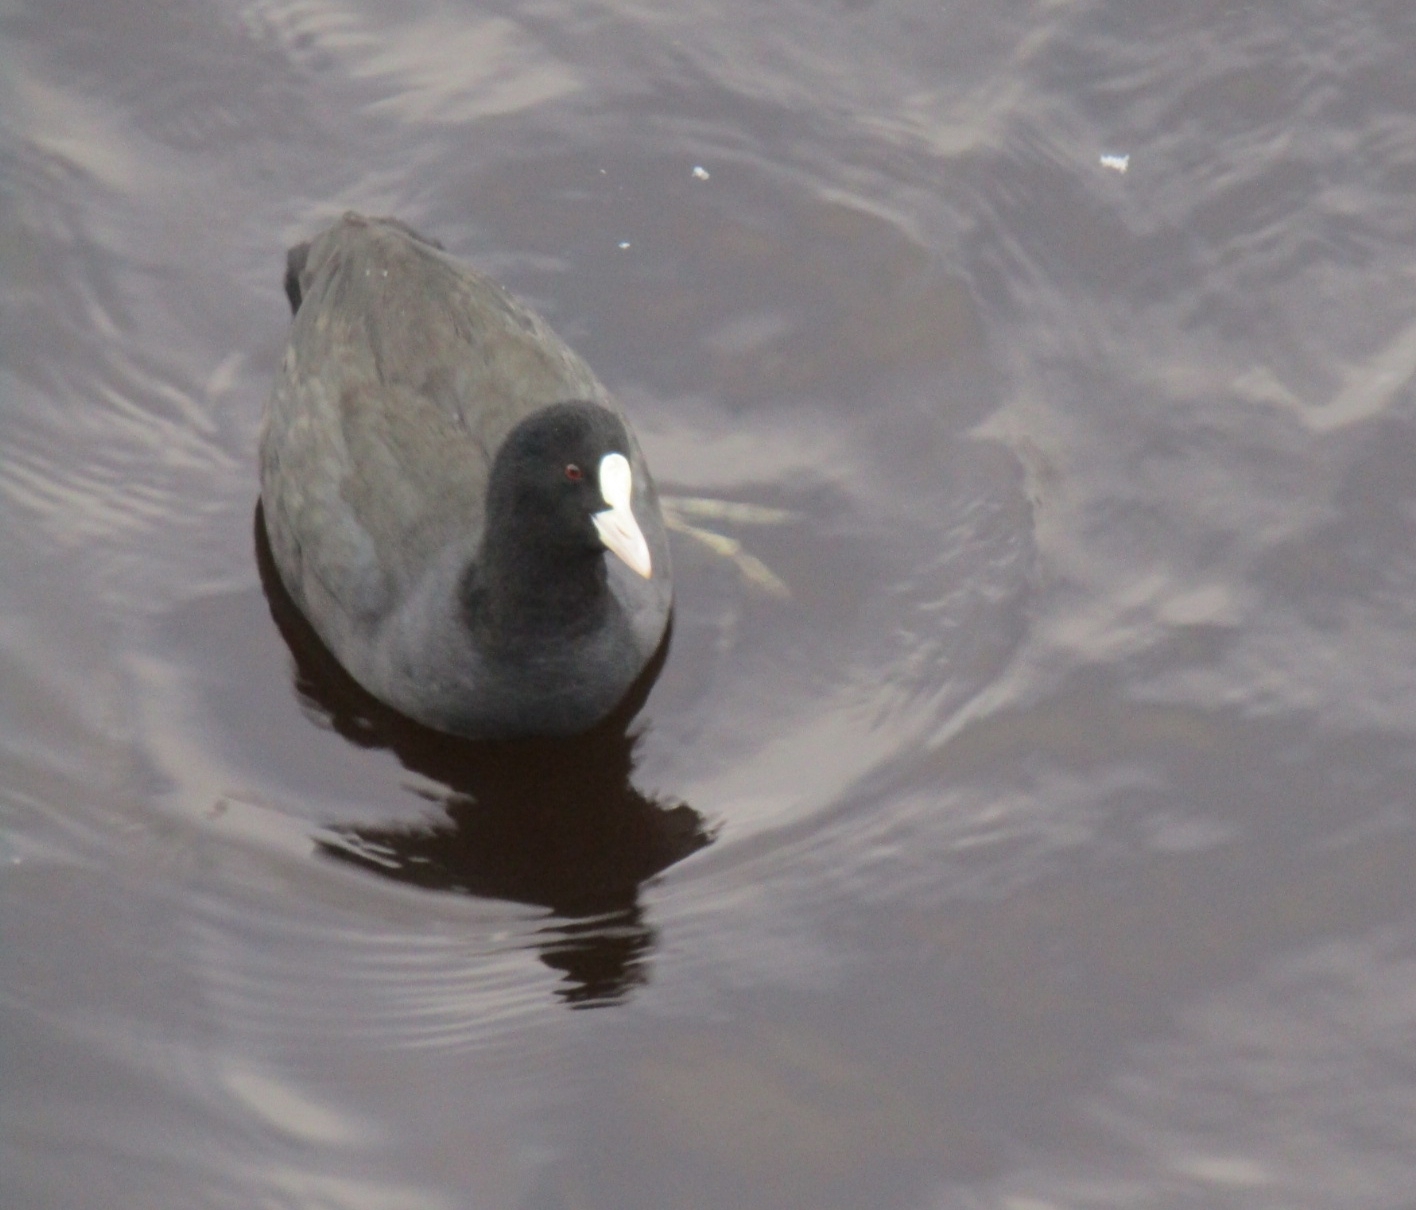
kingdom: Animalia
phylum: Chordata
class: Aves
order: Gruiformes
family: Rallidae
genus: Fulica
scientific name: Fulica atra
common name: Eurasian coot
